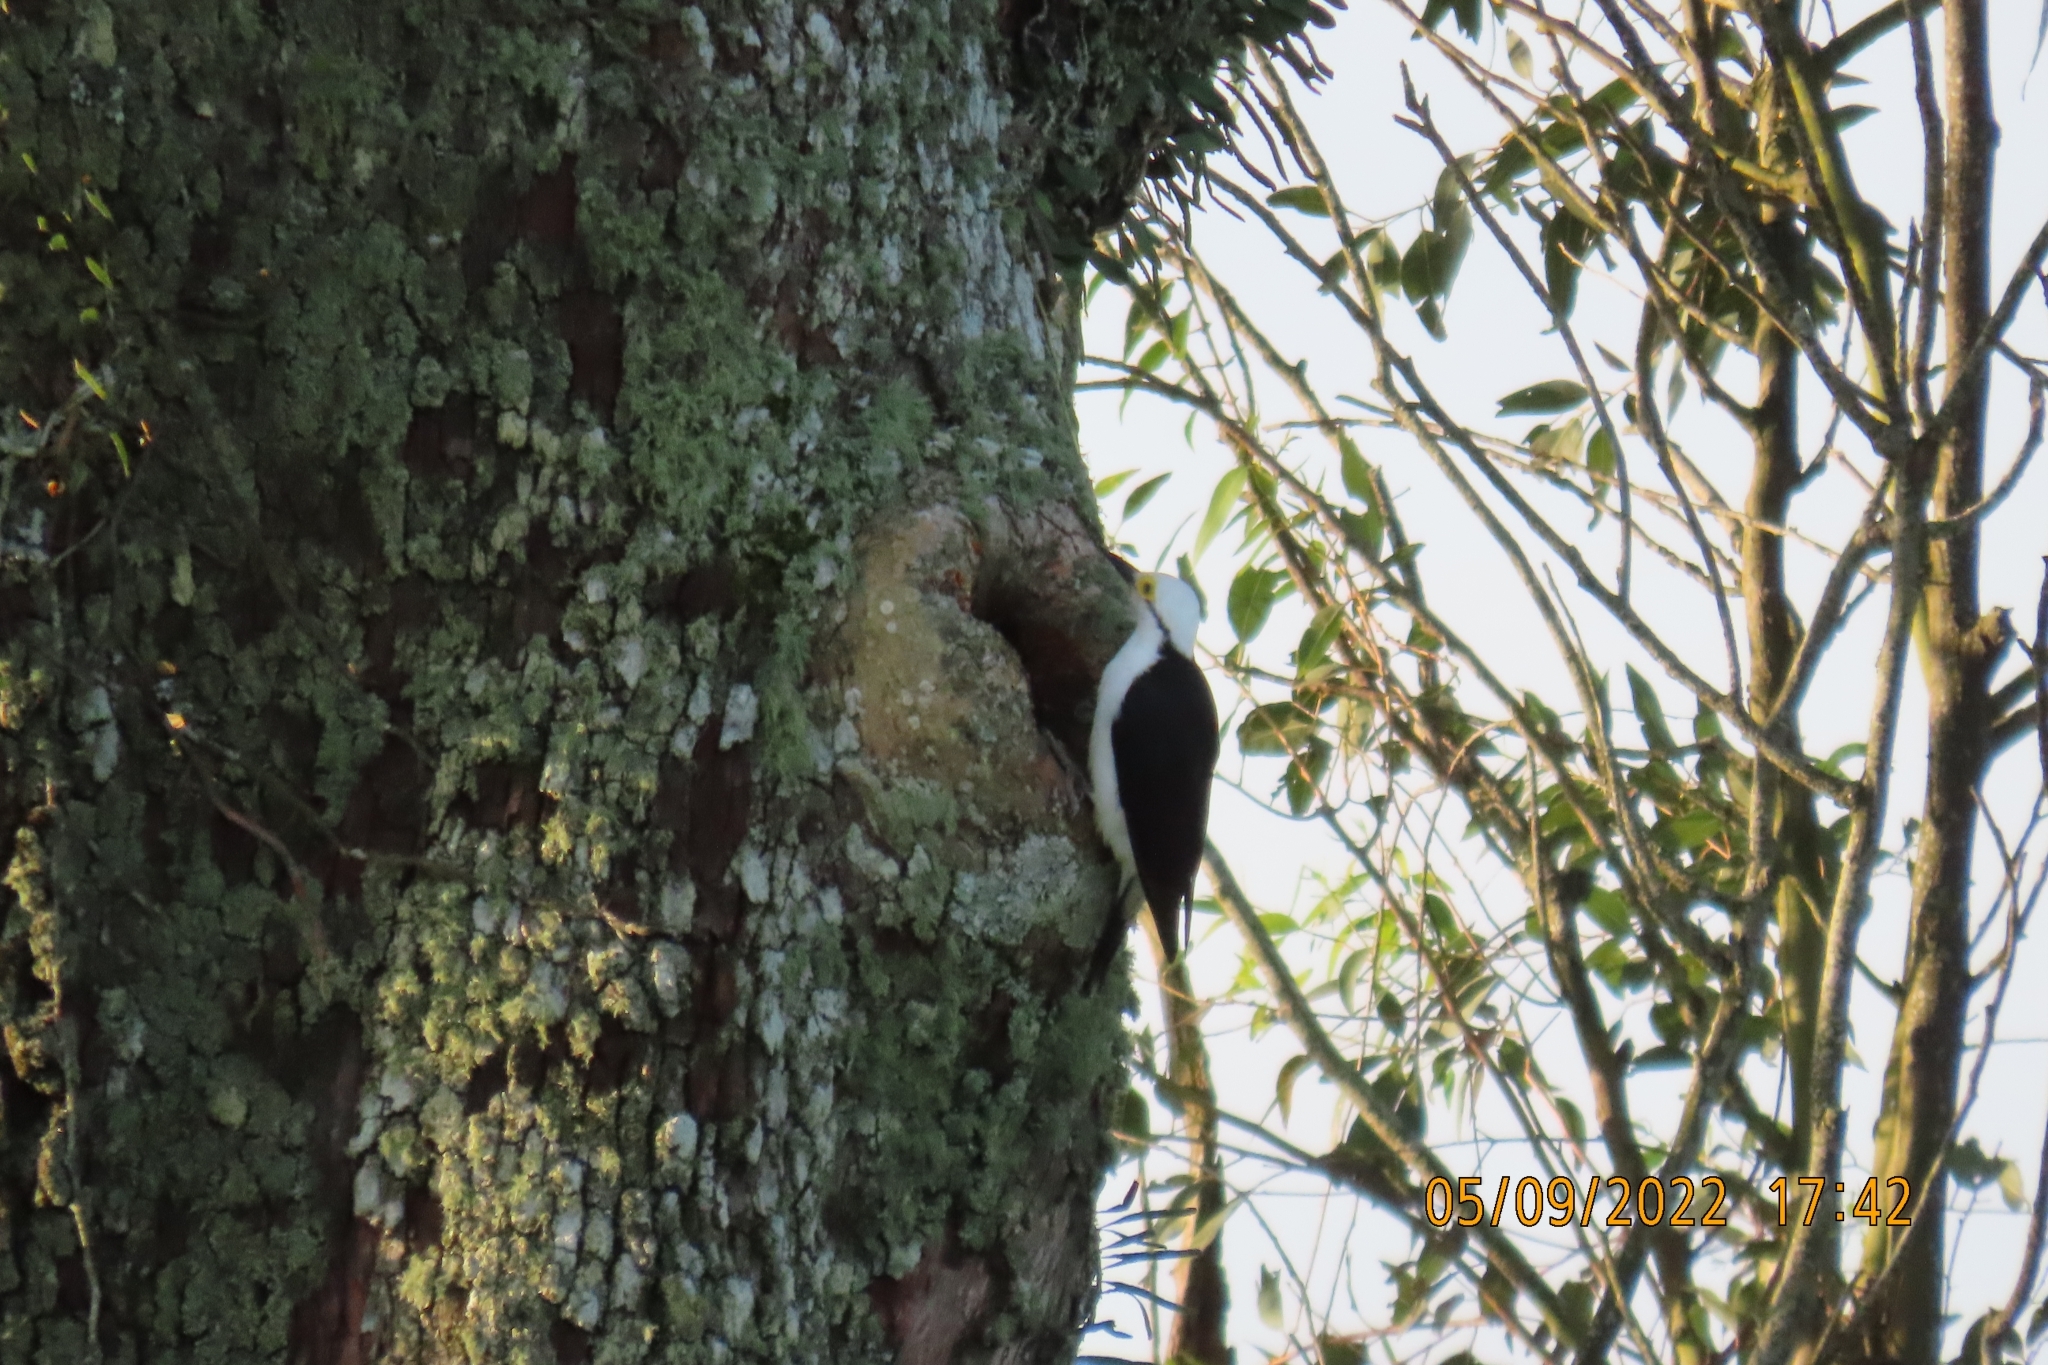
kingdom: Animalia
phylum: Chordata
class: Aves
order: Piciformes
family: Picidae
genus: Melanerpes
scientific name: Melanerpes candidus
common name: White woodpecker
